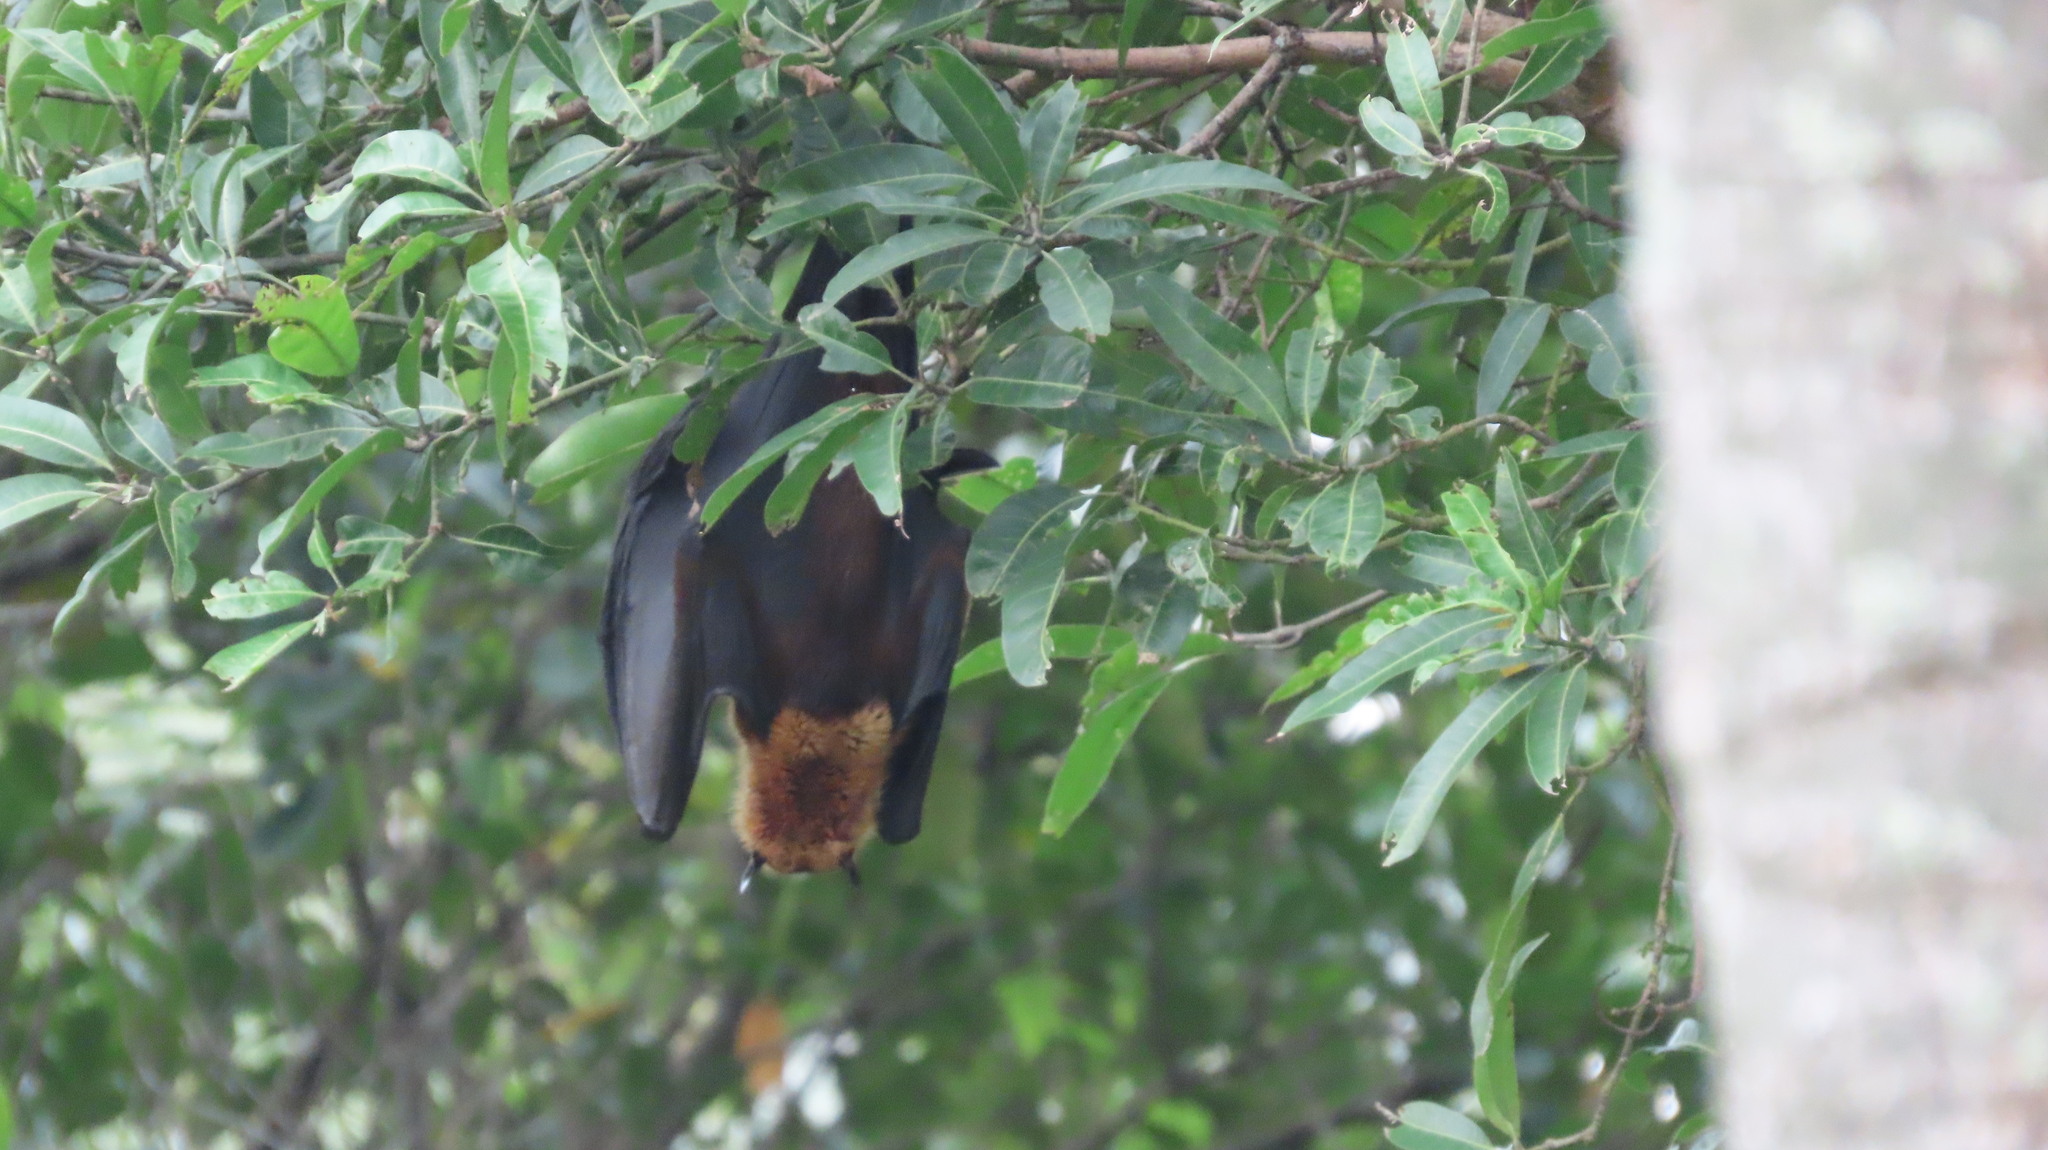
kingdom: Animalia
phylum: Chordata
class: Mammalia
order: Chiroptera
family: Pteropodidae
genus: Pteropus
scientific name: Pteropus vampyrus
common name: Large flying fox
